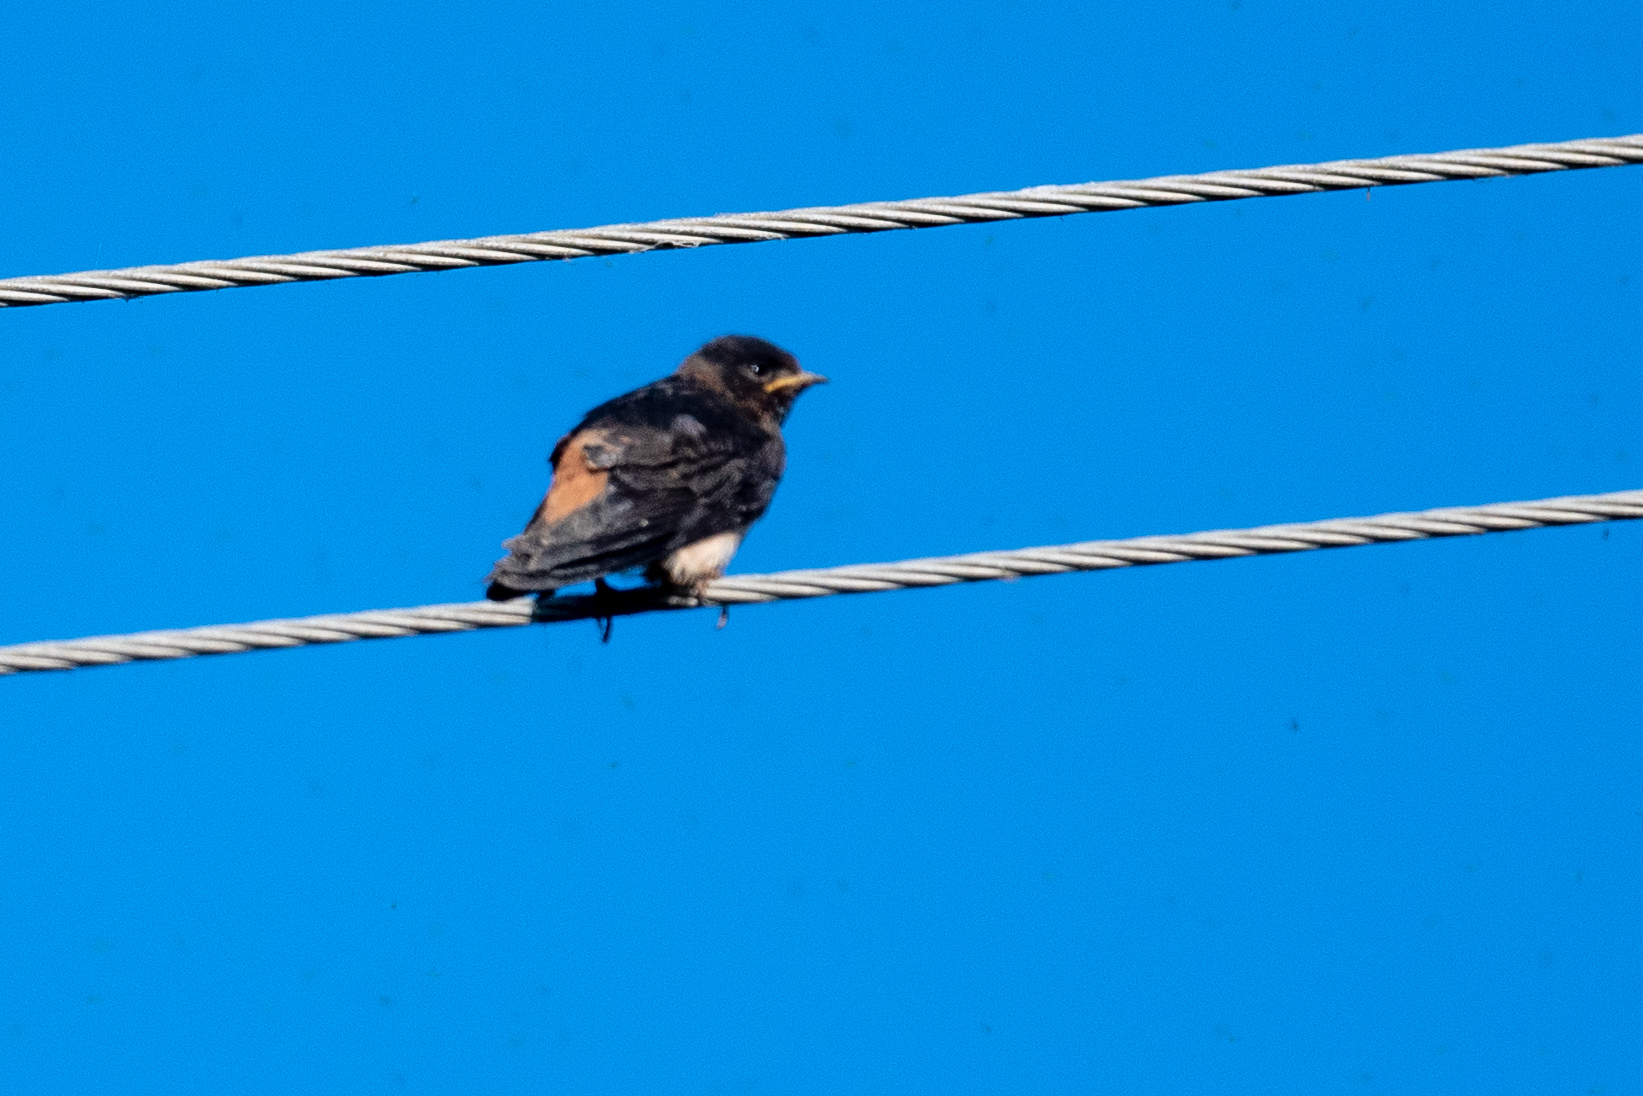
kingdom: Animalia
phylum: Chordata
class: Aves
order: Passeriformes
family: Hirundinidae
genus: Petrochelidon
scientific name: Petrochelidon pyrrhonota
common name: American cliff swallow
